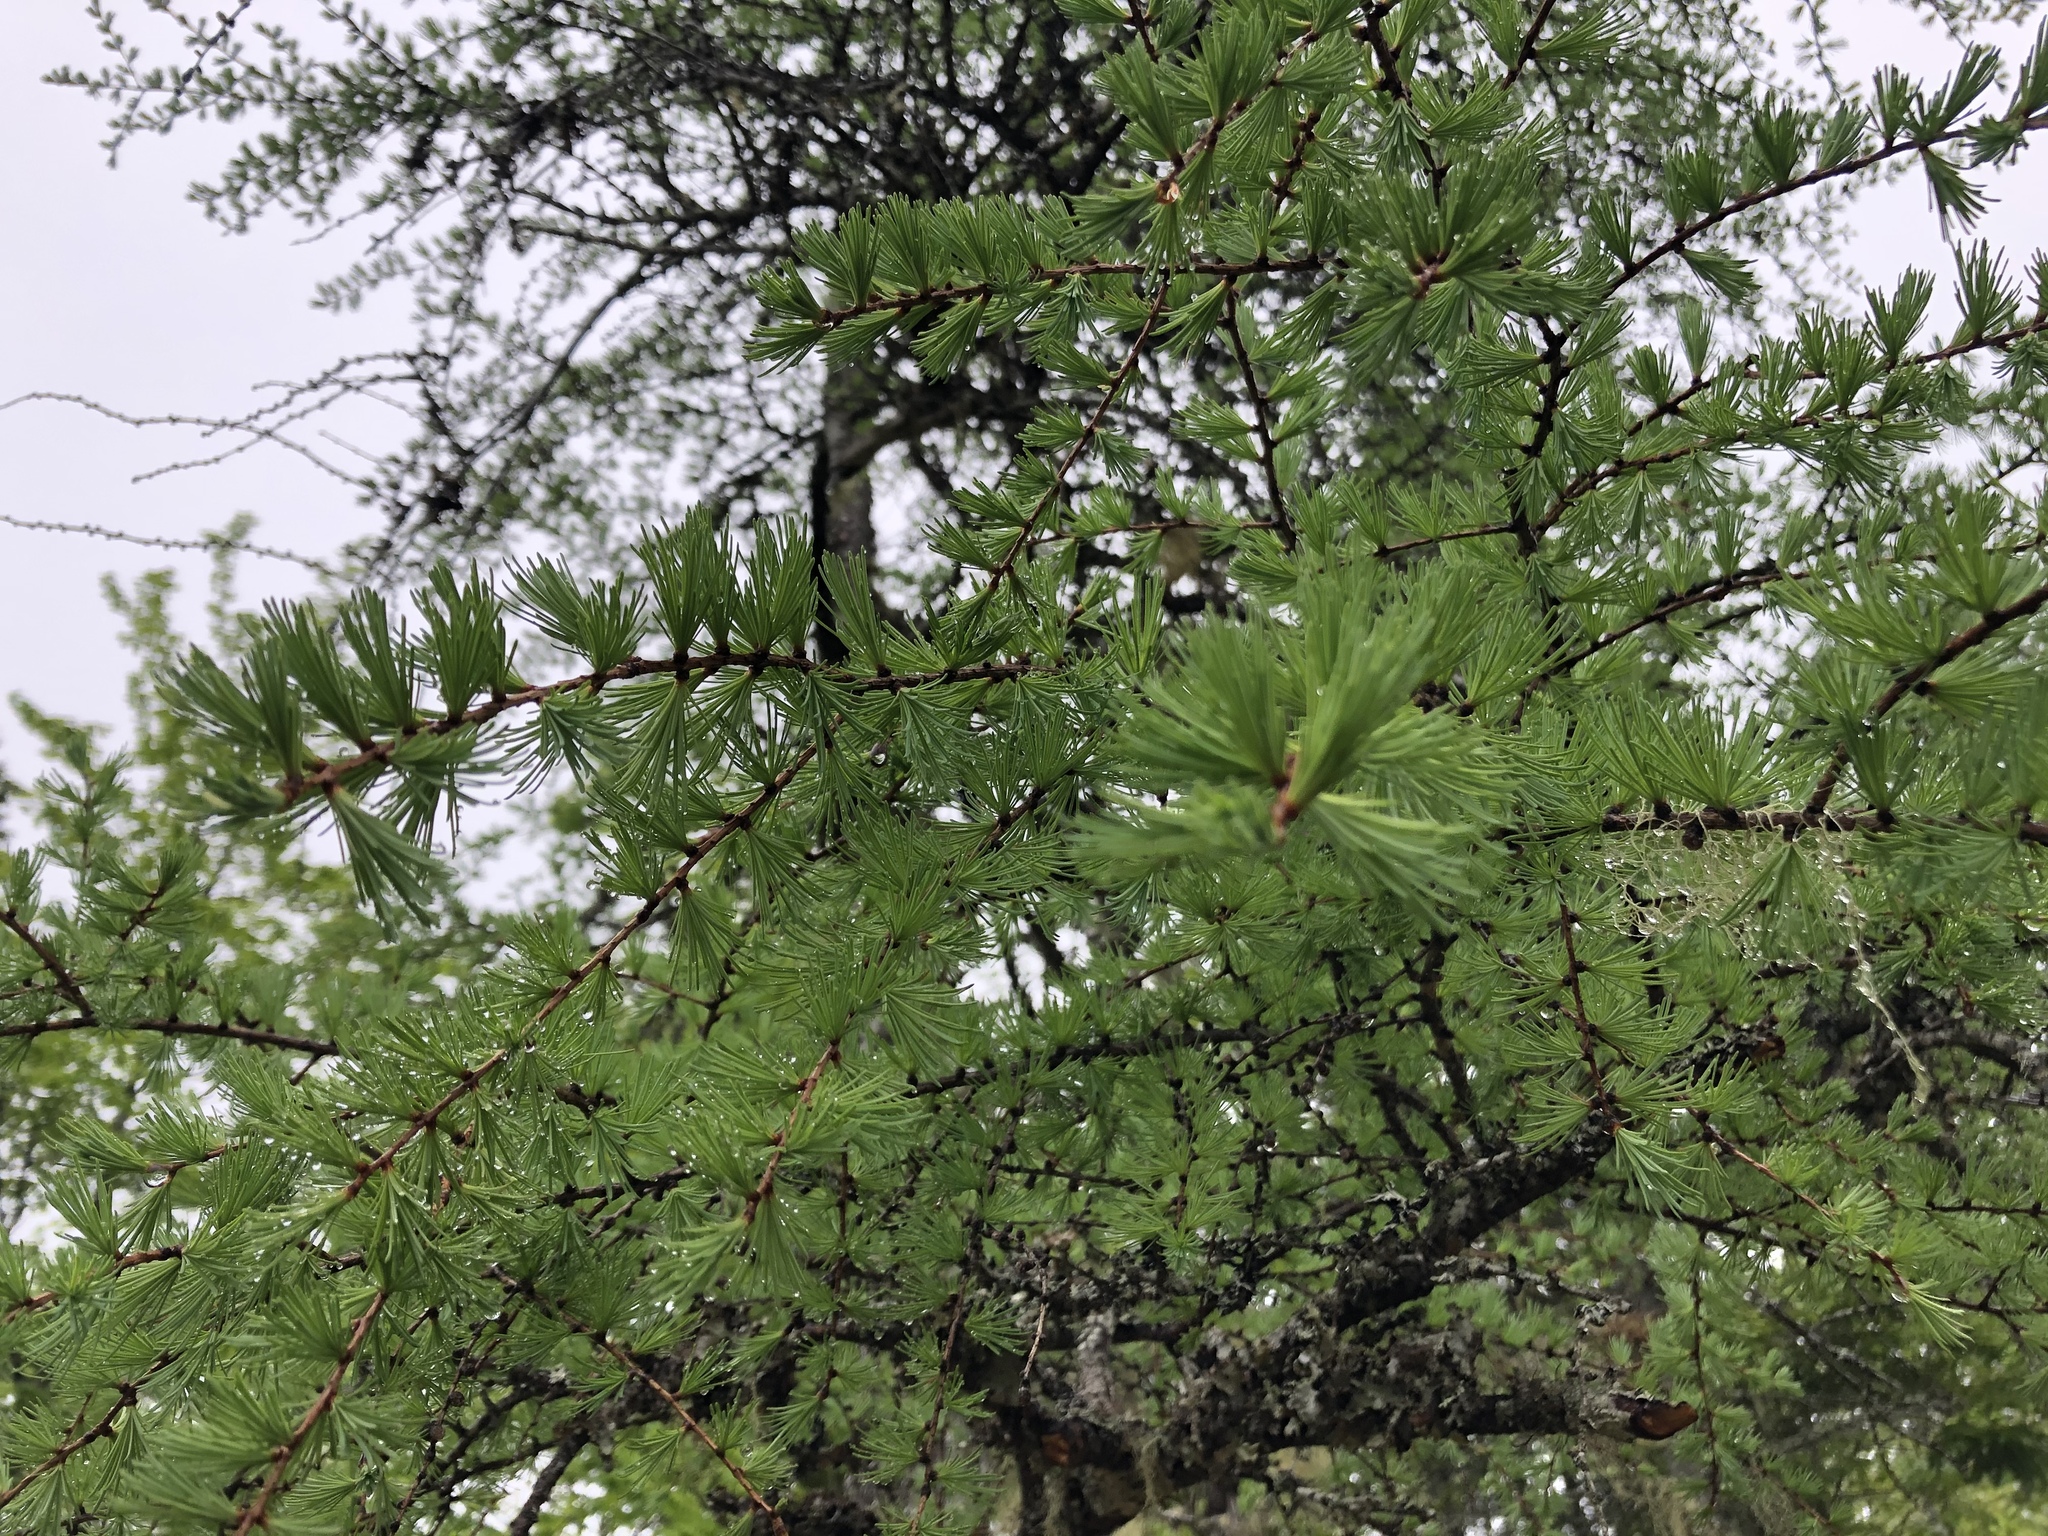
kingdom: Plantae
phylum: Tracheophyta
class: Pinopsida
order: Pinales
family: Pinaceae
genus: Larix
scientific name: Larix laricina
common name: American larch
